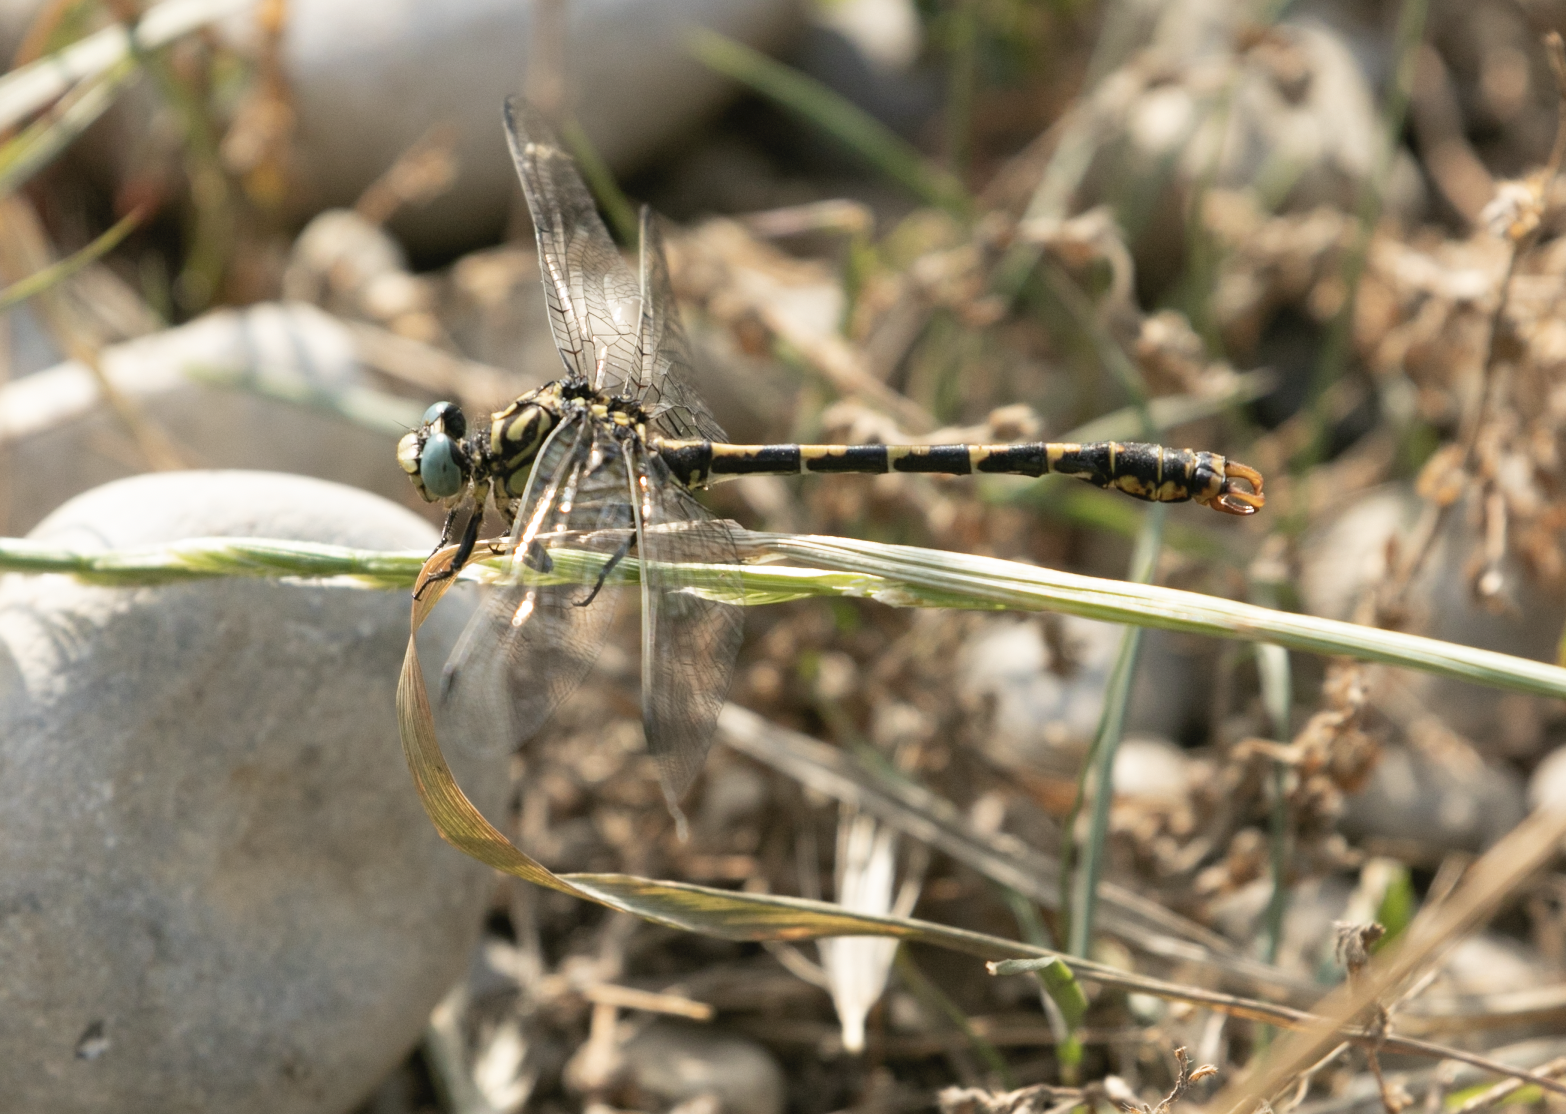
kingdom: Animalia
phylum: Arthropoda
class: Insecta
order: Odonata
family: Gomphidae
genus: Onychogomphus
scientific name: Onychogomphus forcipatus
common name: Small pincertail
